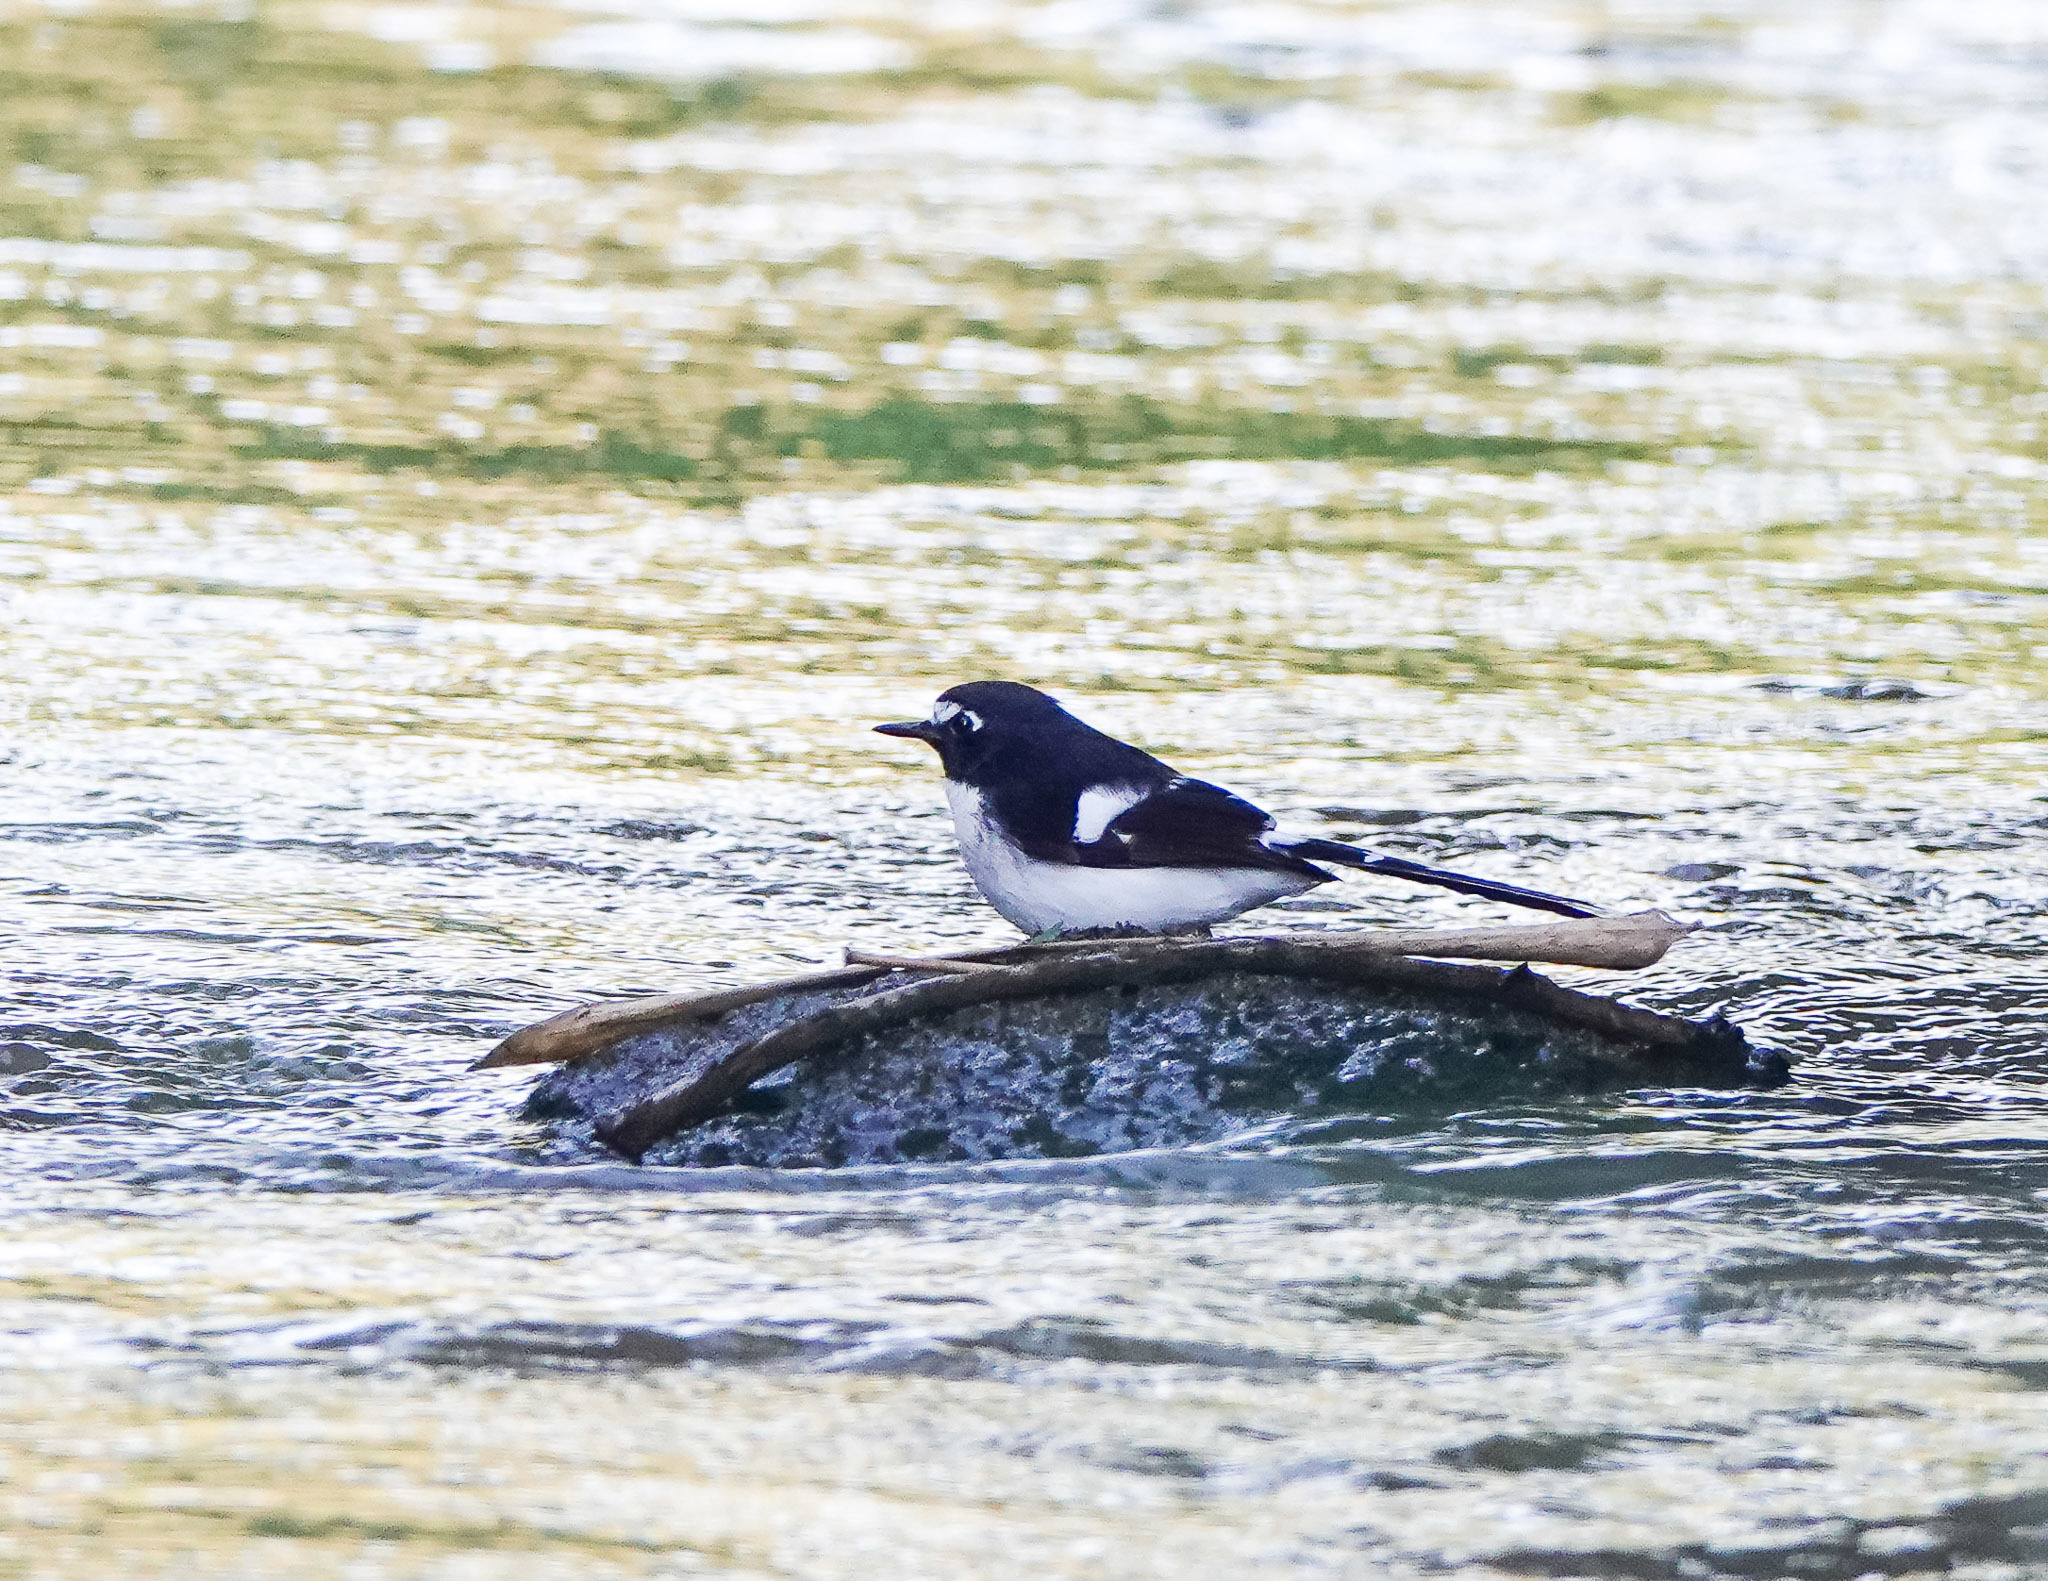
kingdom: Animalia
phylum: Chordata
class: Aves
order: Passeriformes
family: Muscicapidae
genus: Enicurus
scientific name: Enicurus immaculatus
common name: Black-backed forktail
